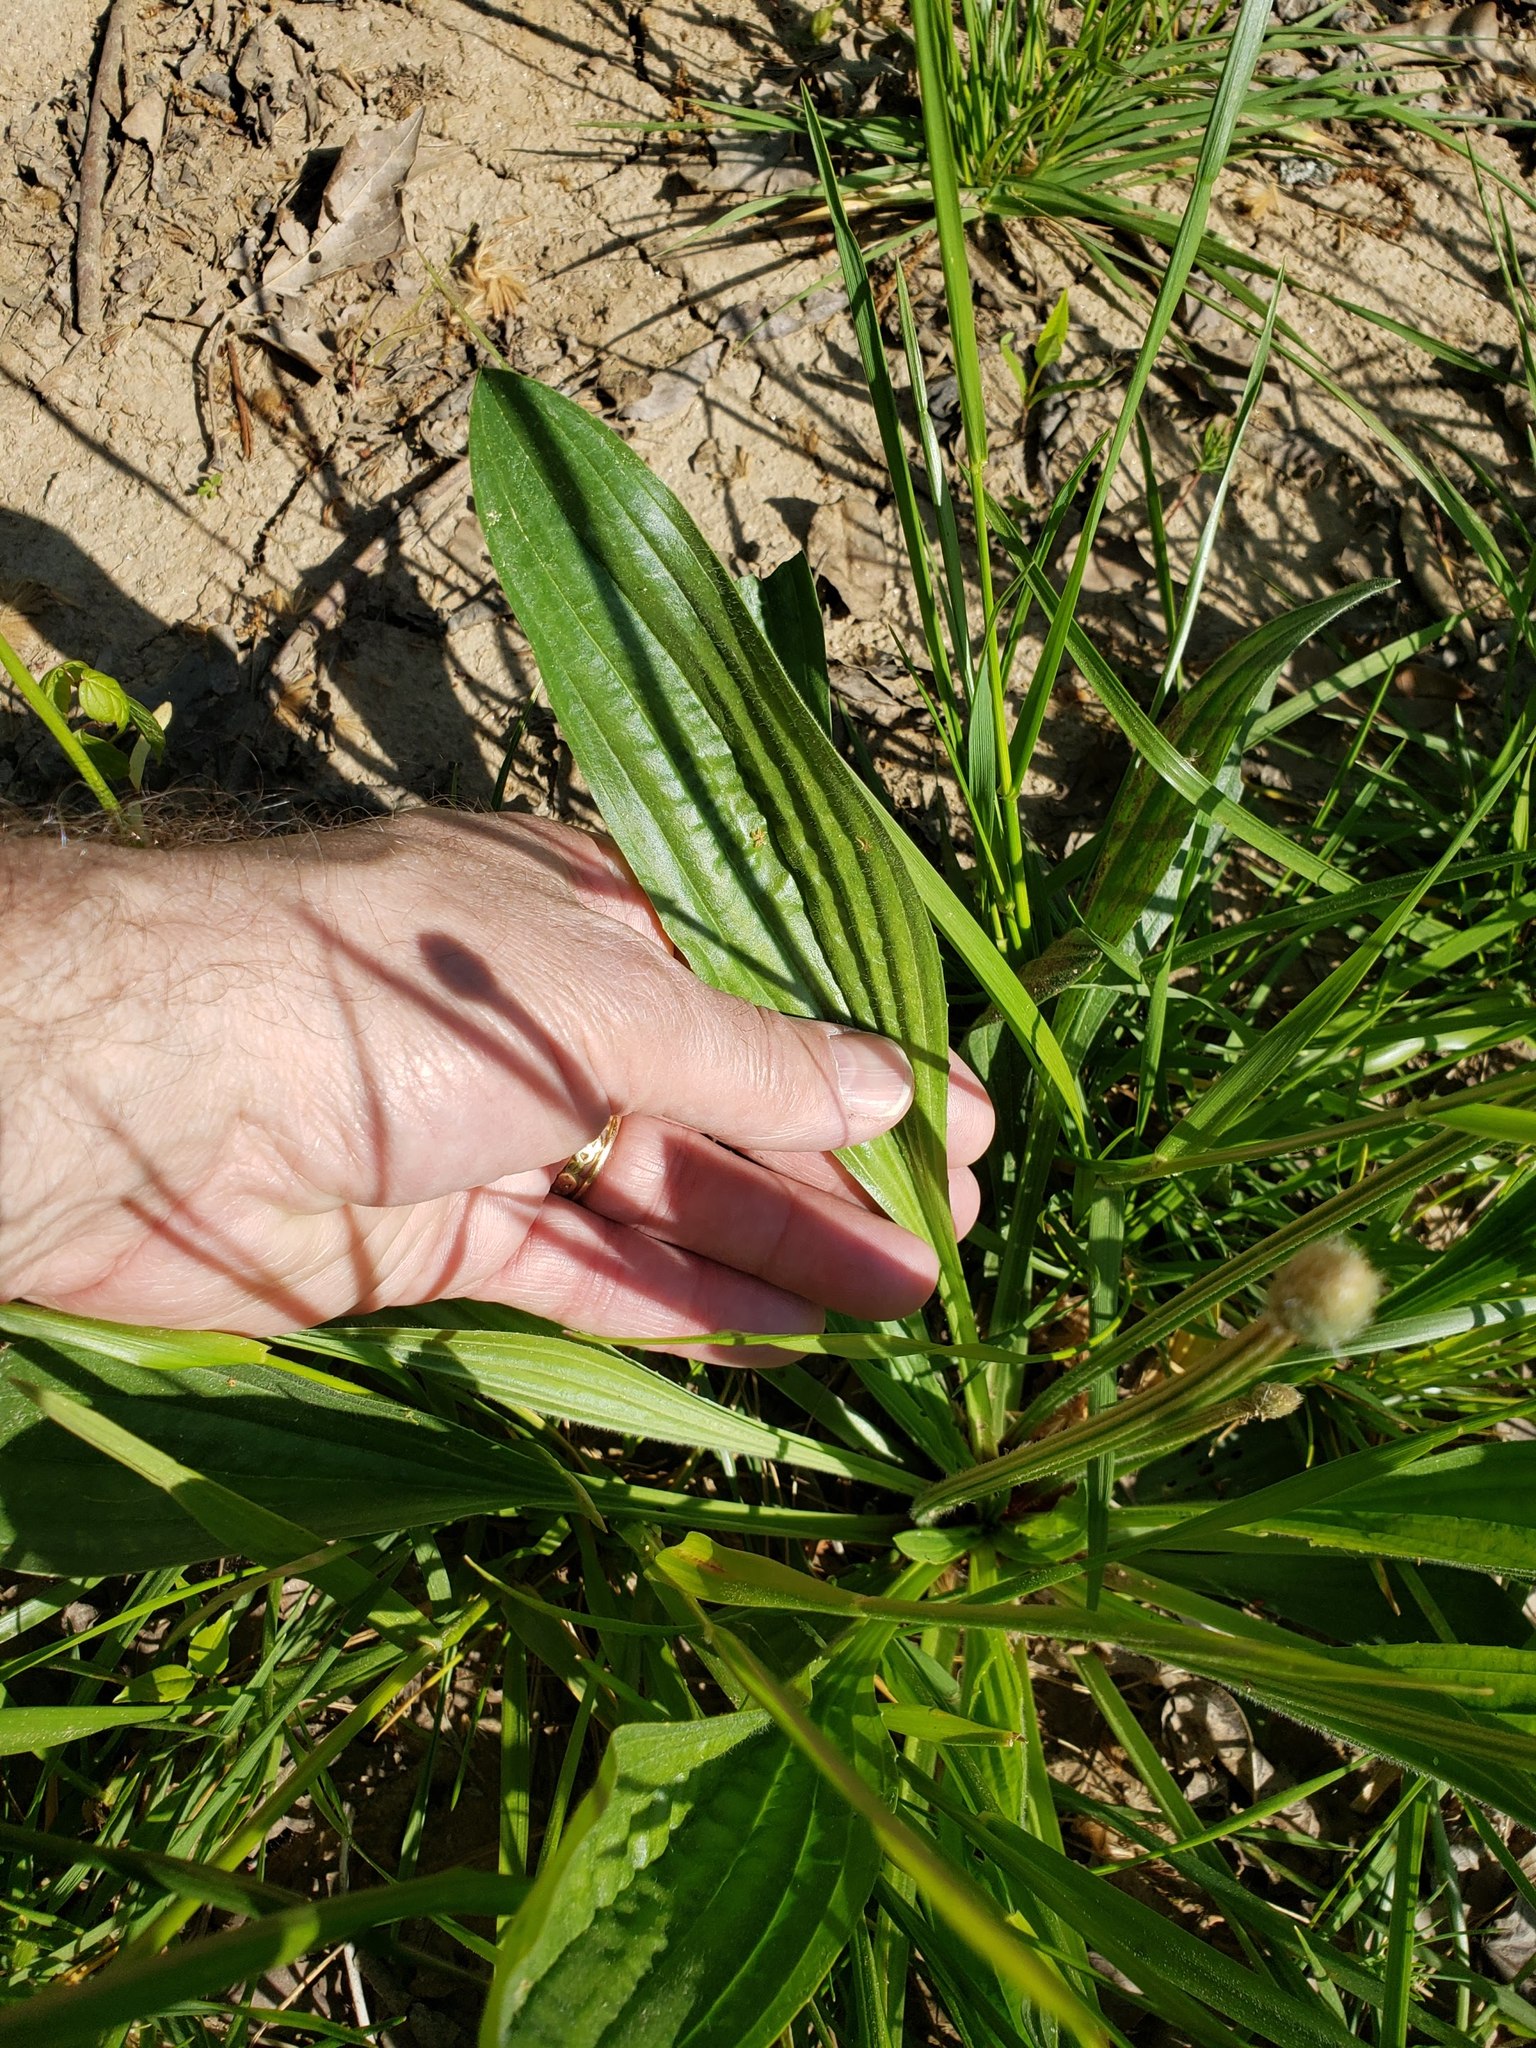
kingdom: Plantae
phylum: Tracheophyta
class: Magnoliopsida
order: Lamiales
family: Plantaginaceae
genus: Plantago
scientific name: Plantago lanceolata
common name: Ribwort plantain
